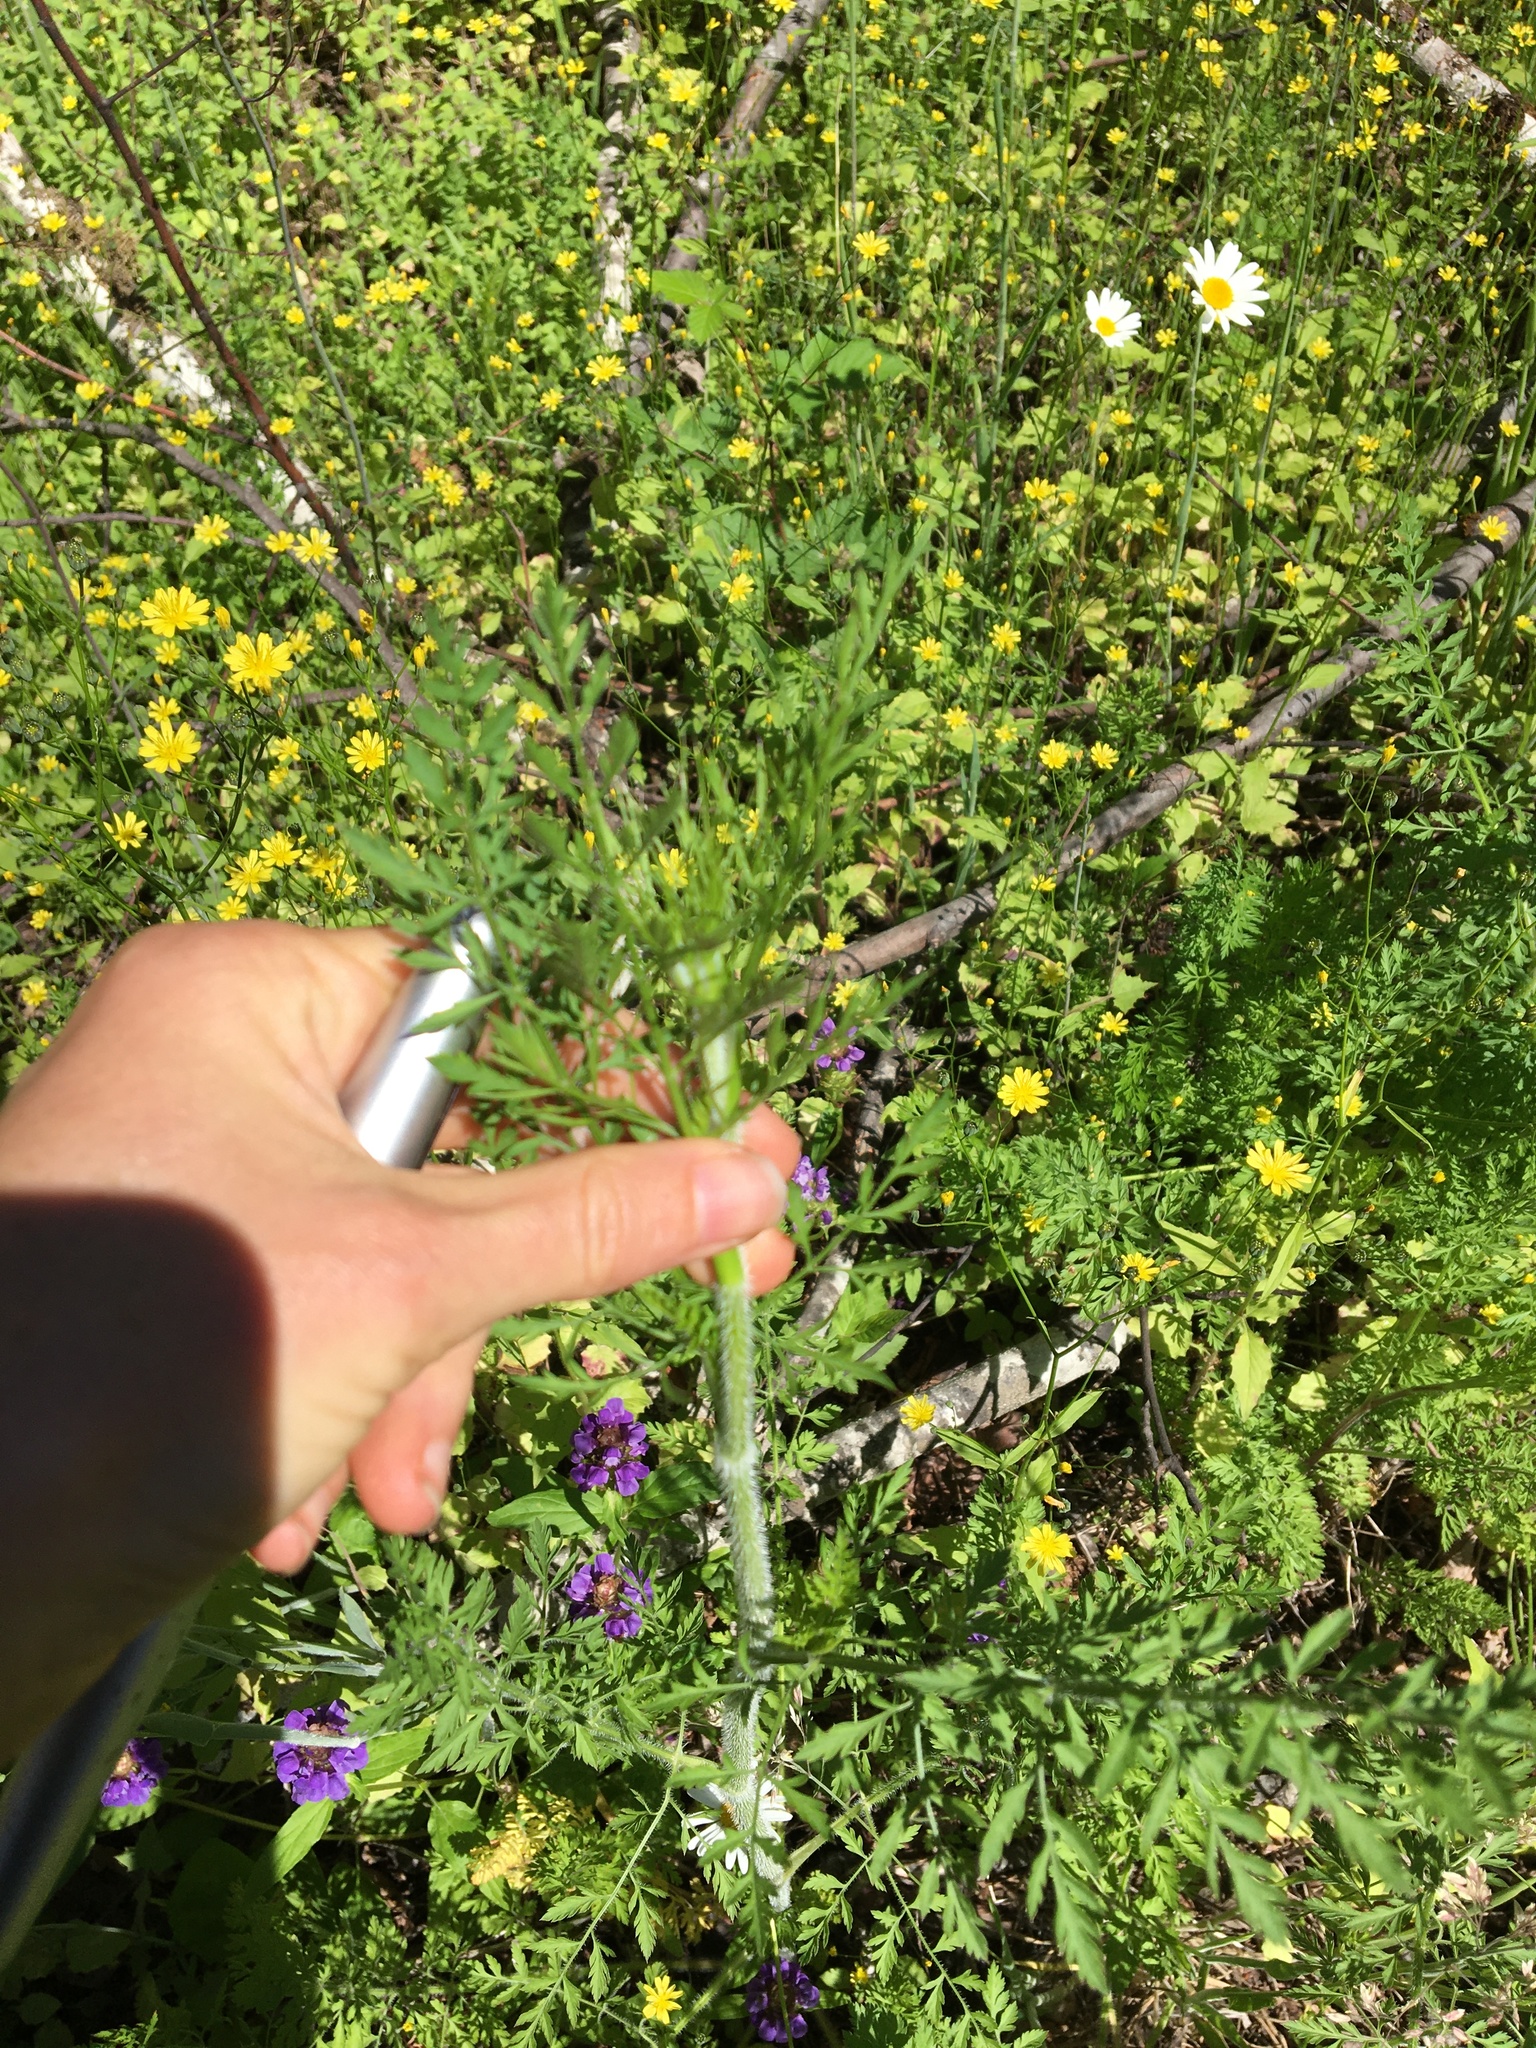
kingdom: Plantae
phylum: Tracheophyta
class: Magnoliopsida
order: Apiales
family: Apiaceae
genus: Daucus
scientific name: Daucus carota
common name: Wild carrot
